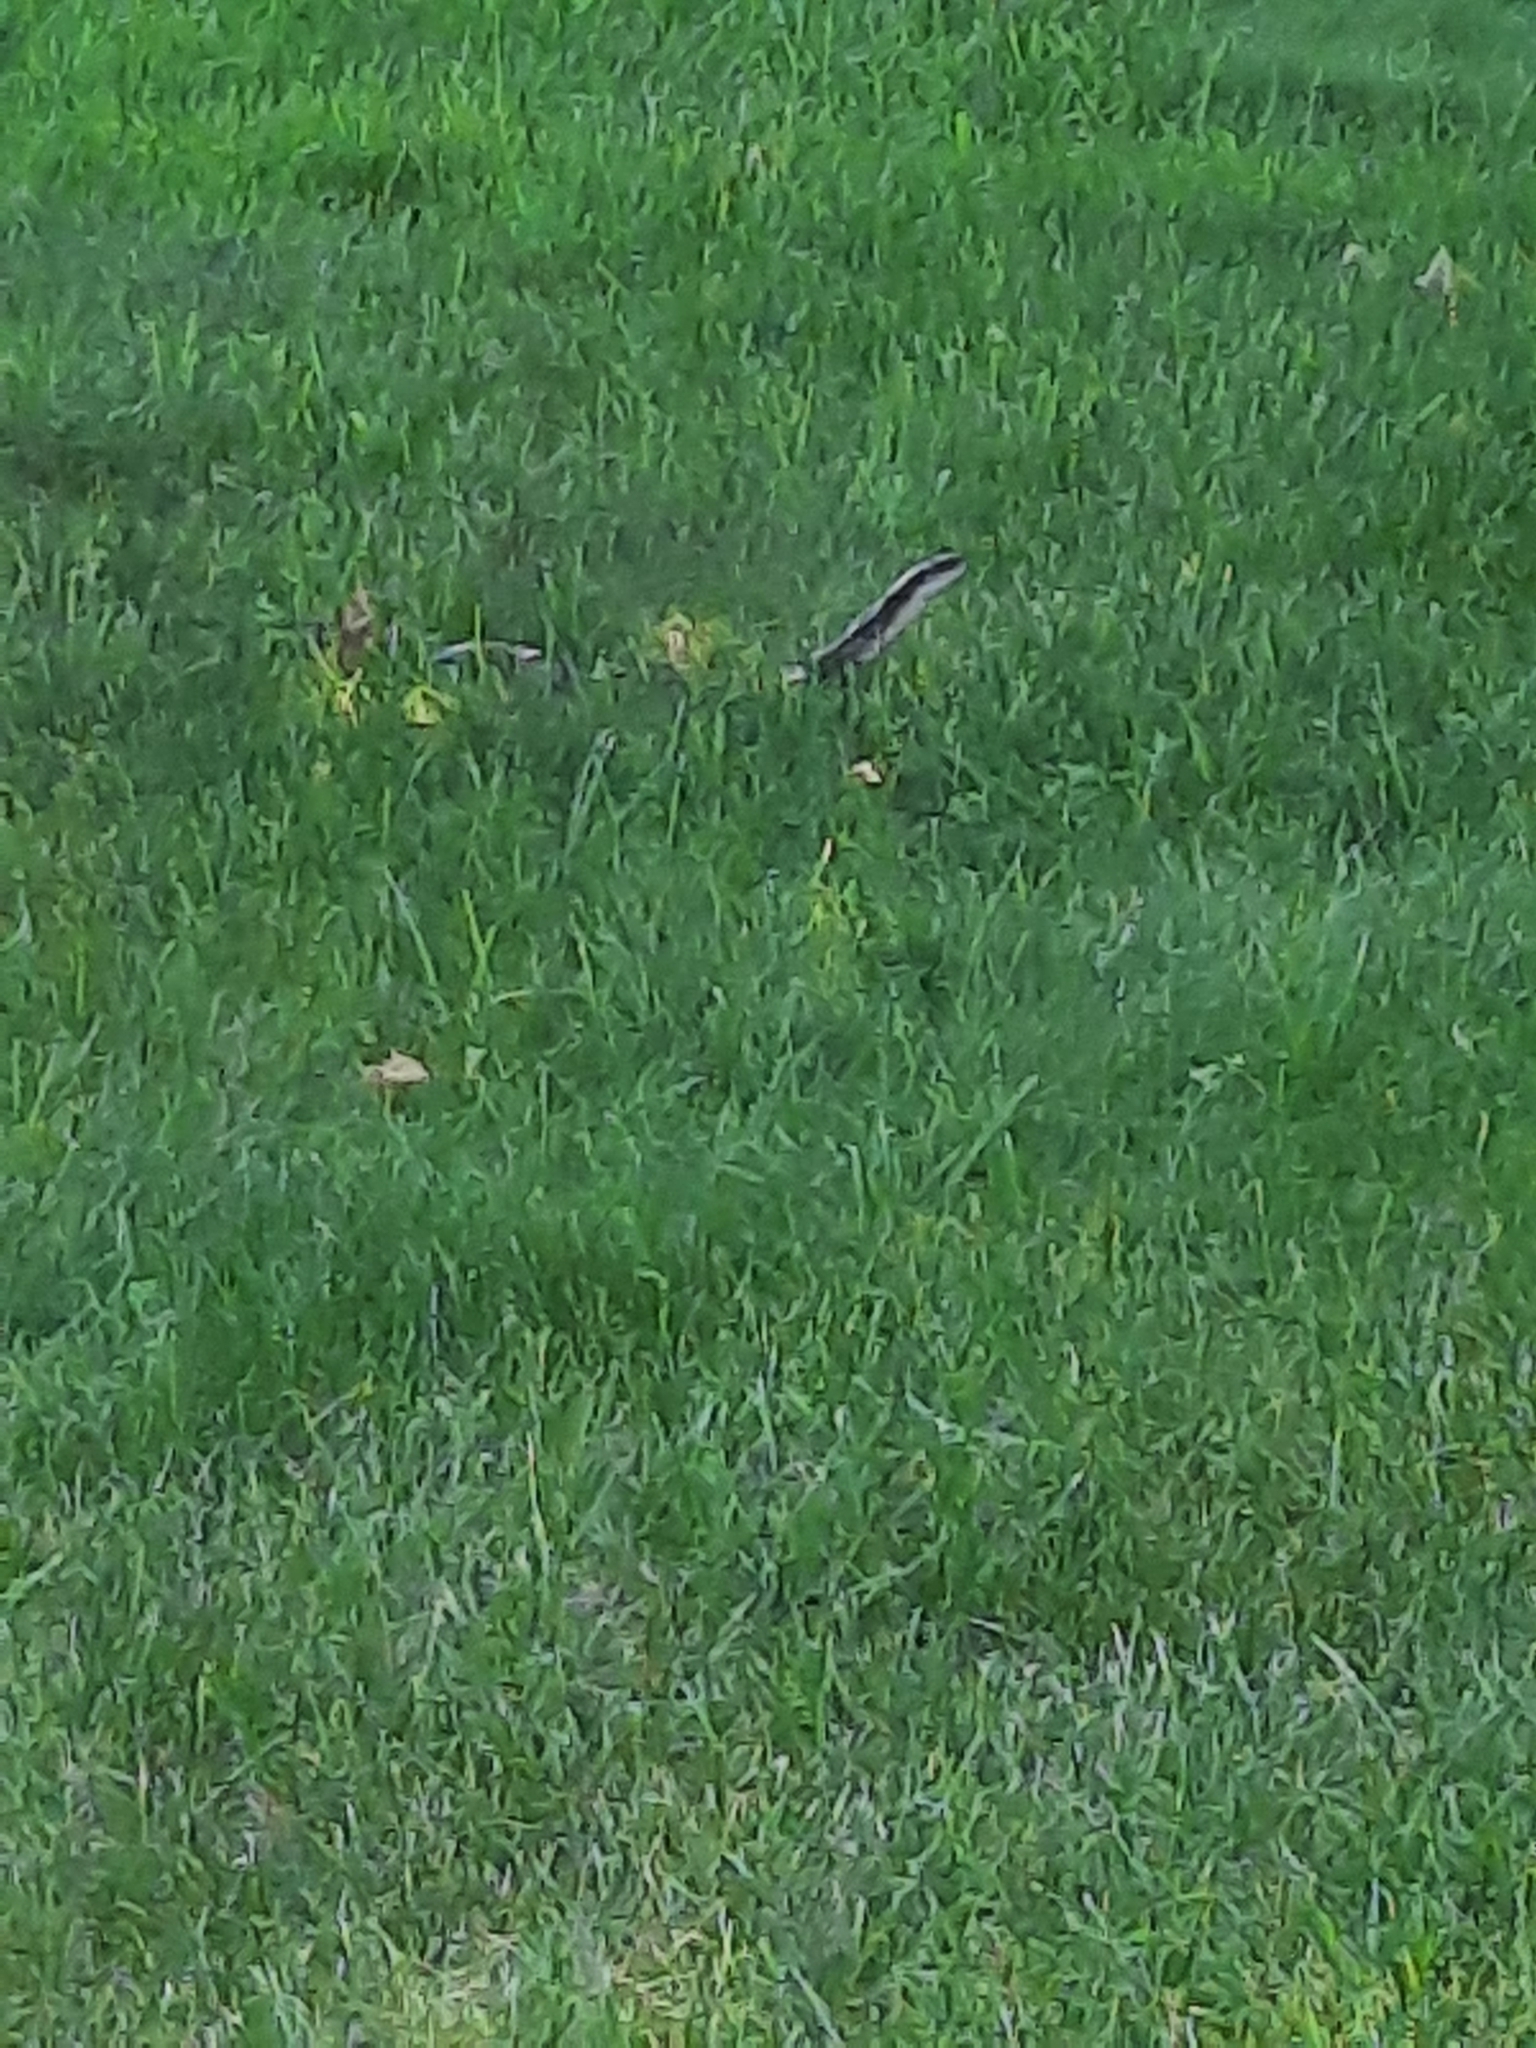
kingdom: Animalia
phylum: Chordata
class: Squamata
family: Colubridae
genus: Pantherophis
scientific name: Pantherophis spiloides
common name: Gray rat snake
